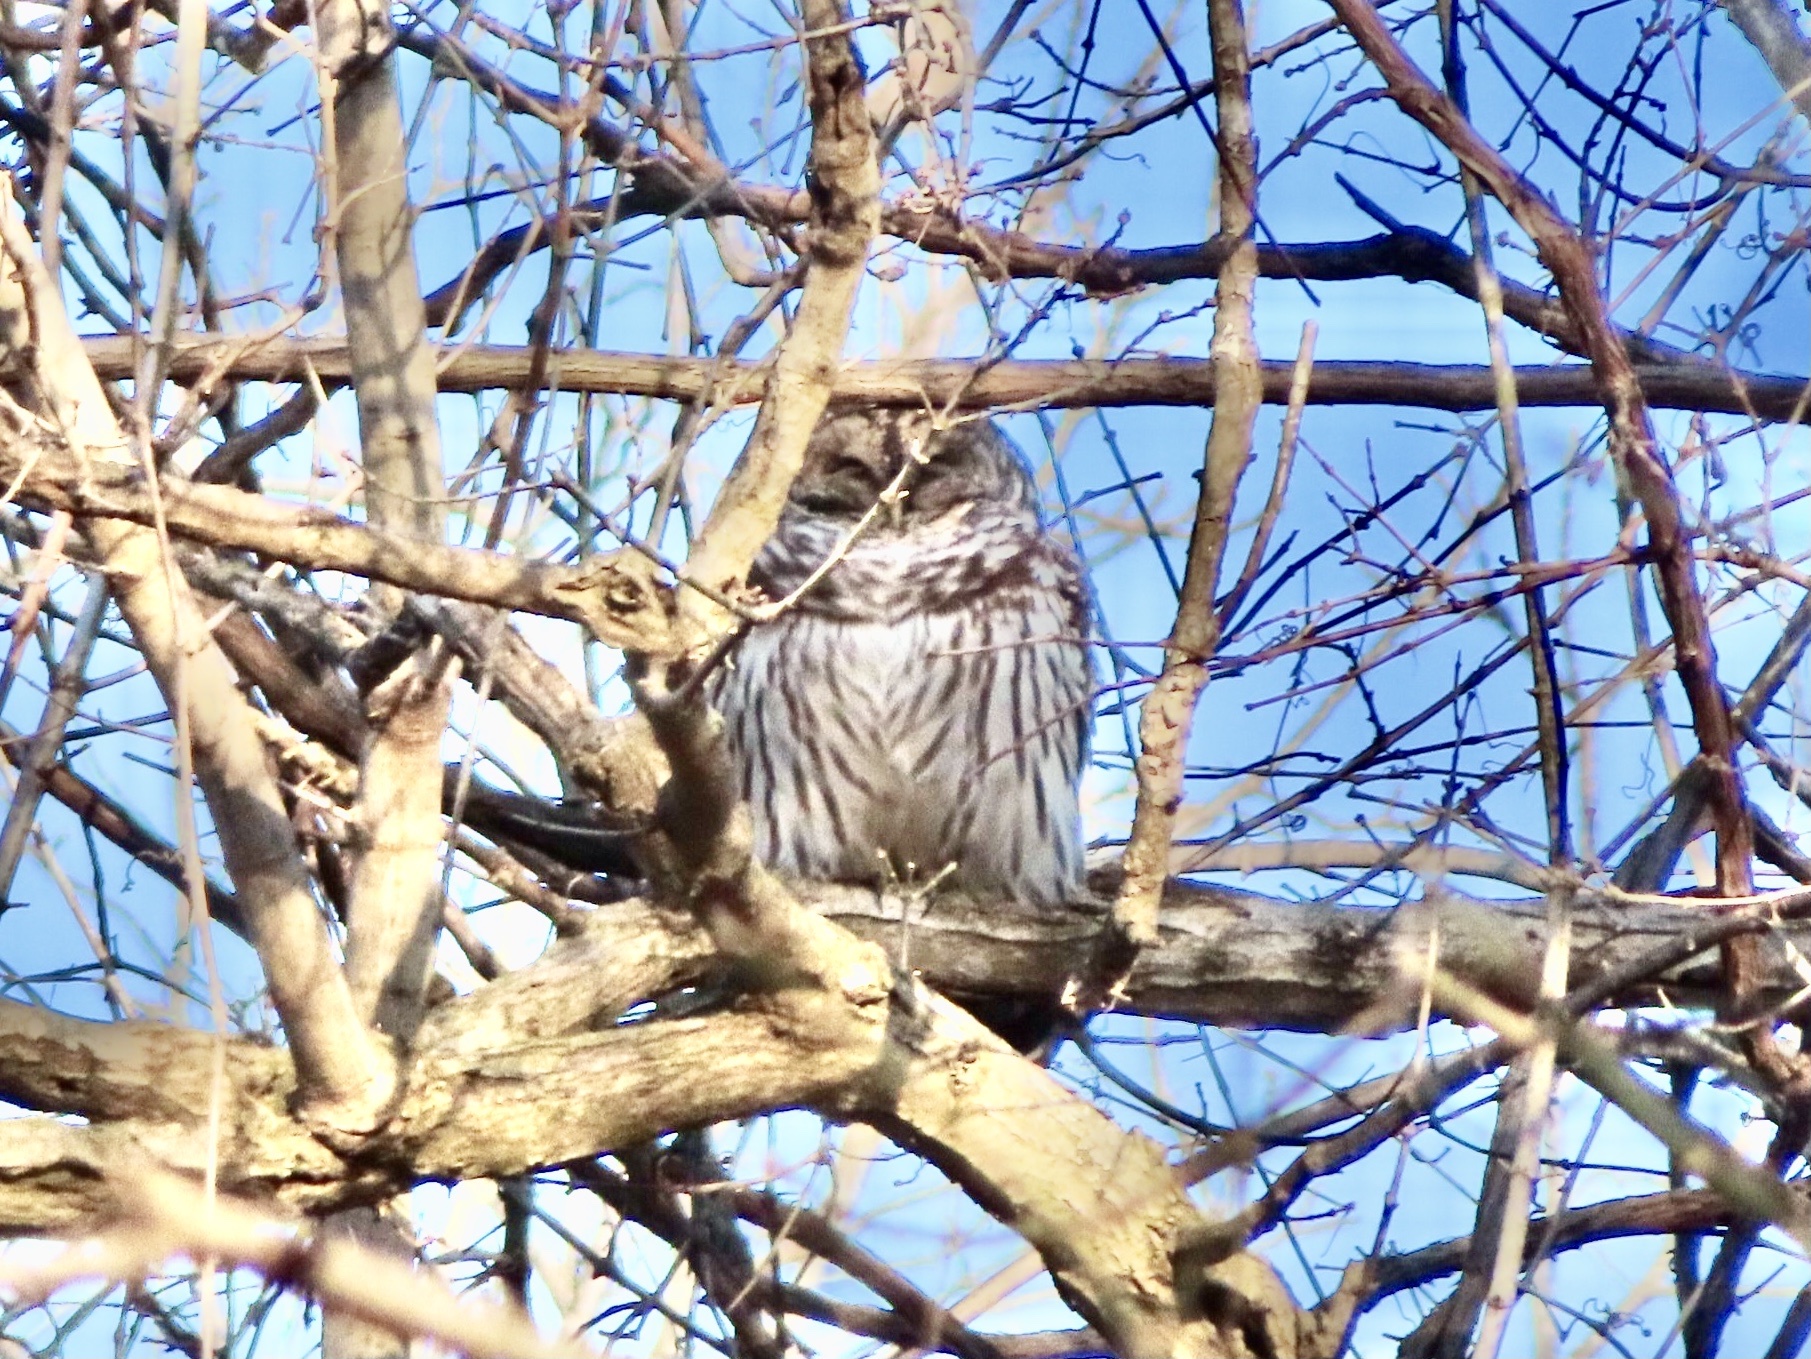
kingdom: Animalia
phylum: Chordata
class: Aves
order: Strigiformes
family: Strigidae
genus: Strix
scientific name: Strix varia
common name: Barred owl
